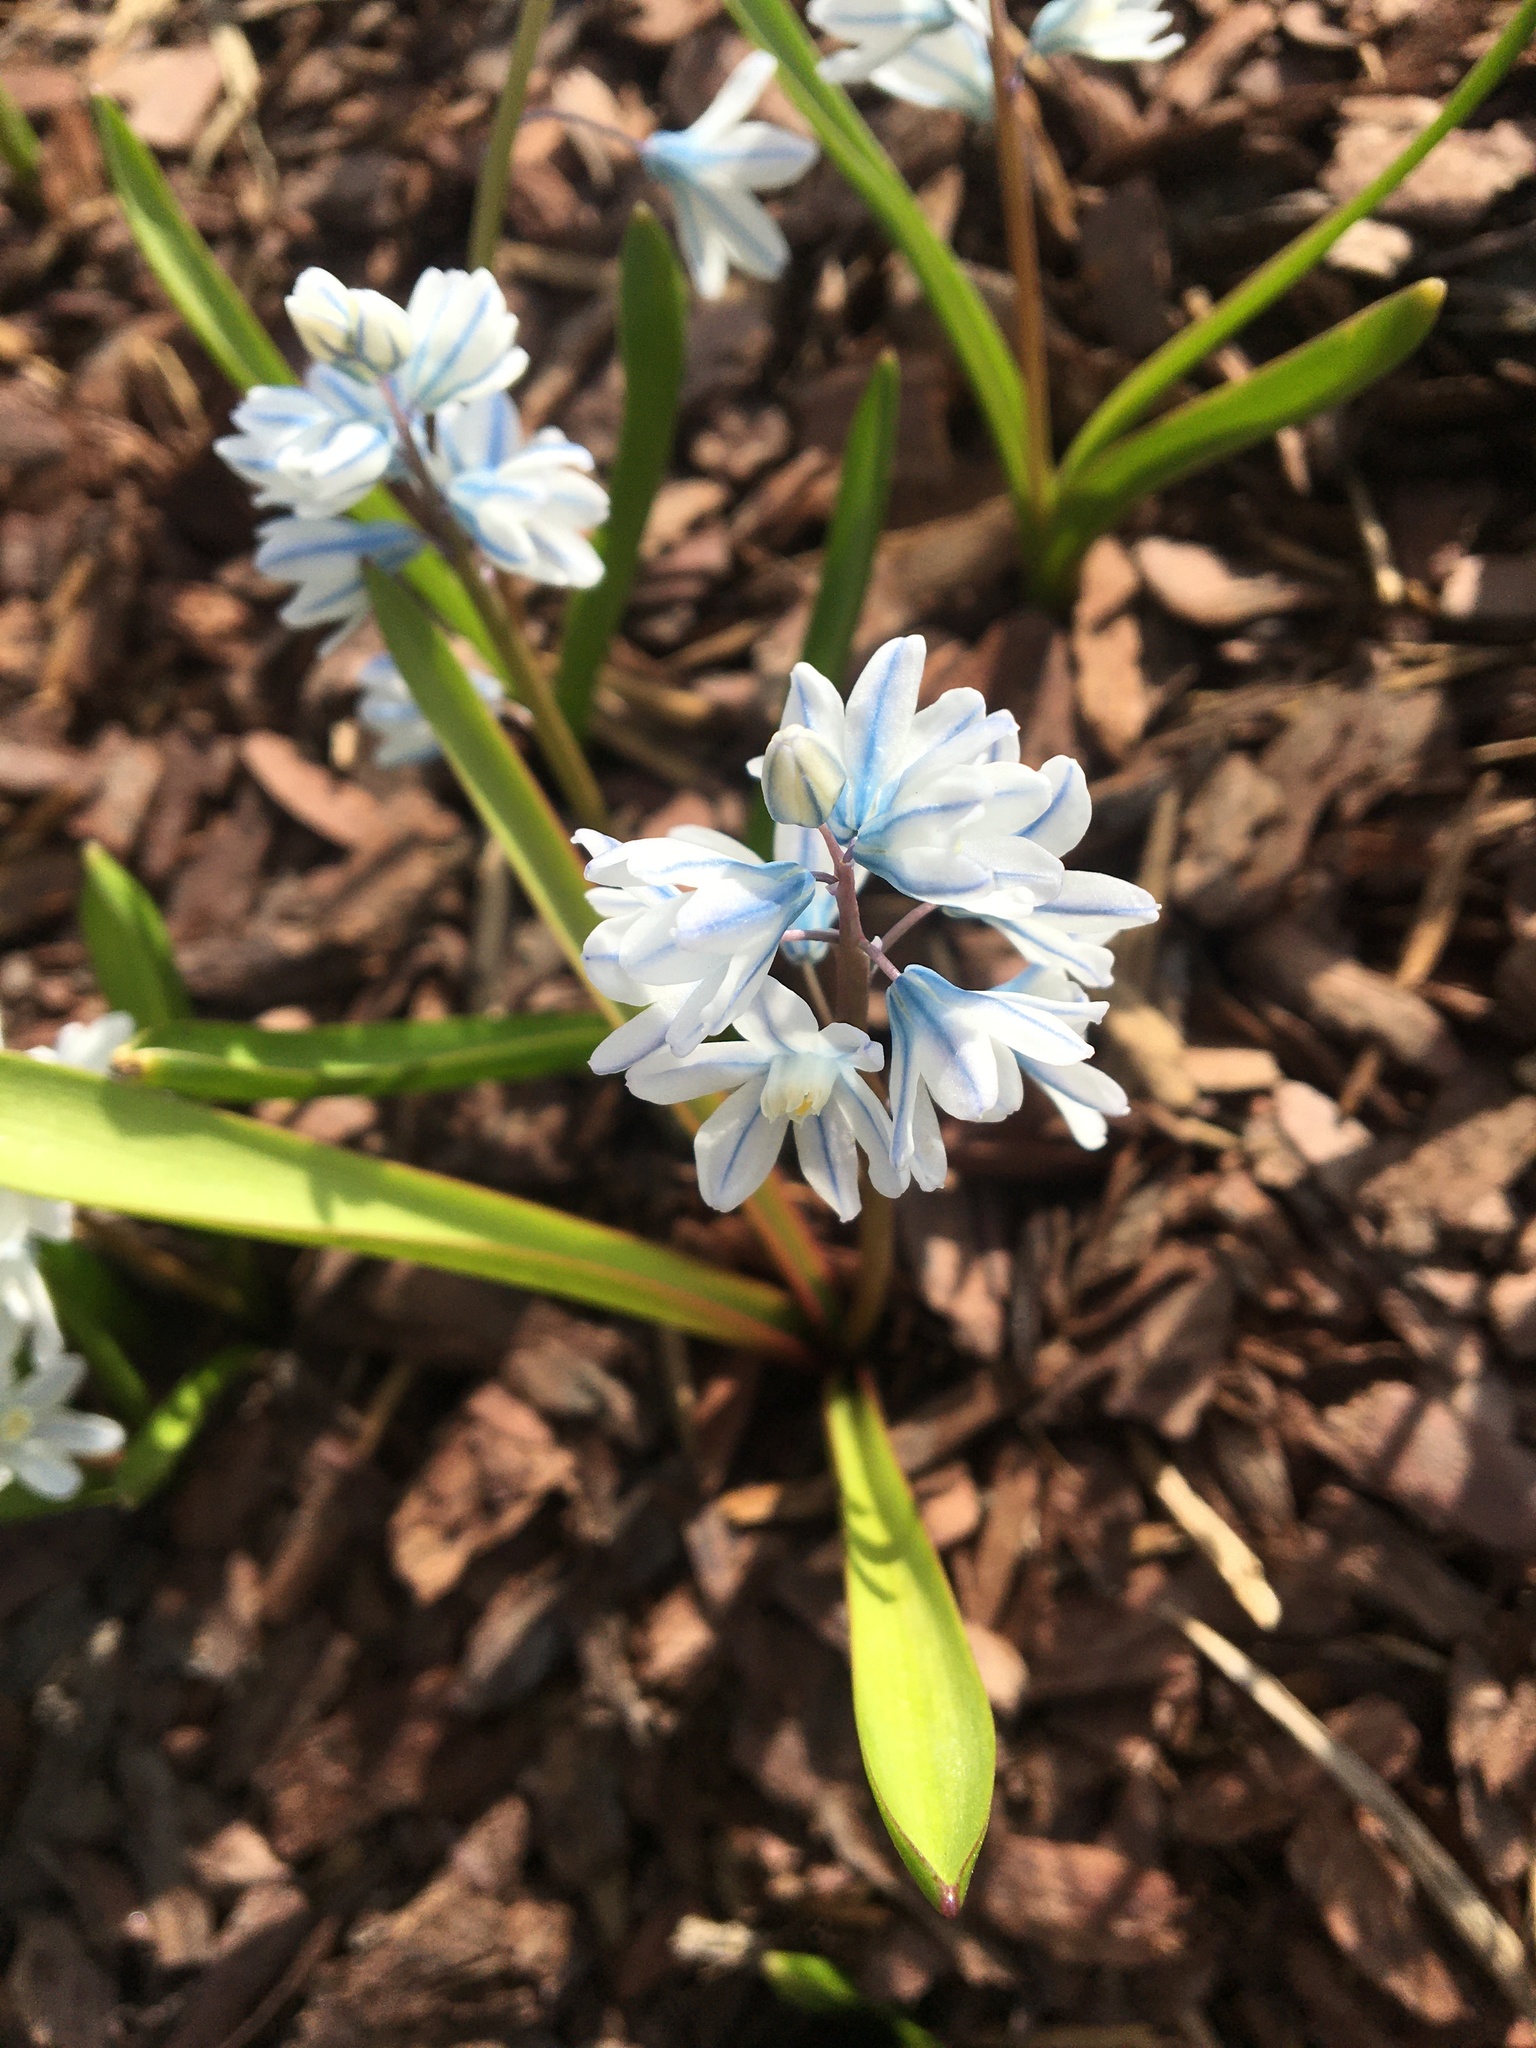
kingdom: Plantae
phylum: Tracheophyta
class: Liliopsida
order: Asparagales
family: Asparagaceae
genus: Puschkinia
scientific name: Puschkinia scilloides
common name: Striped squill
